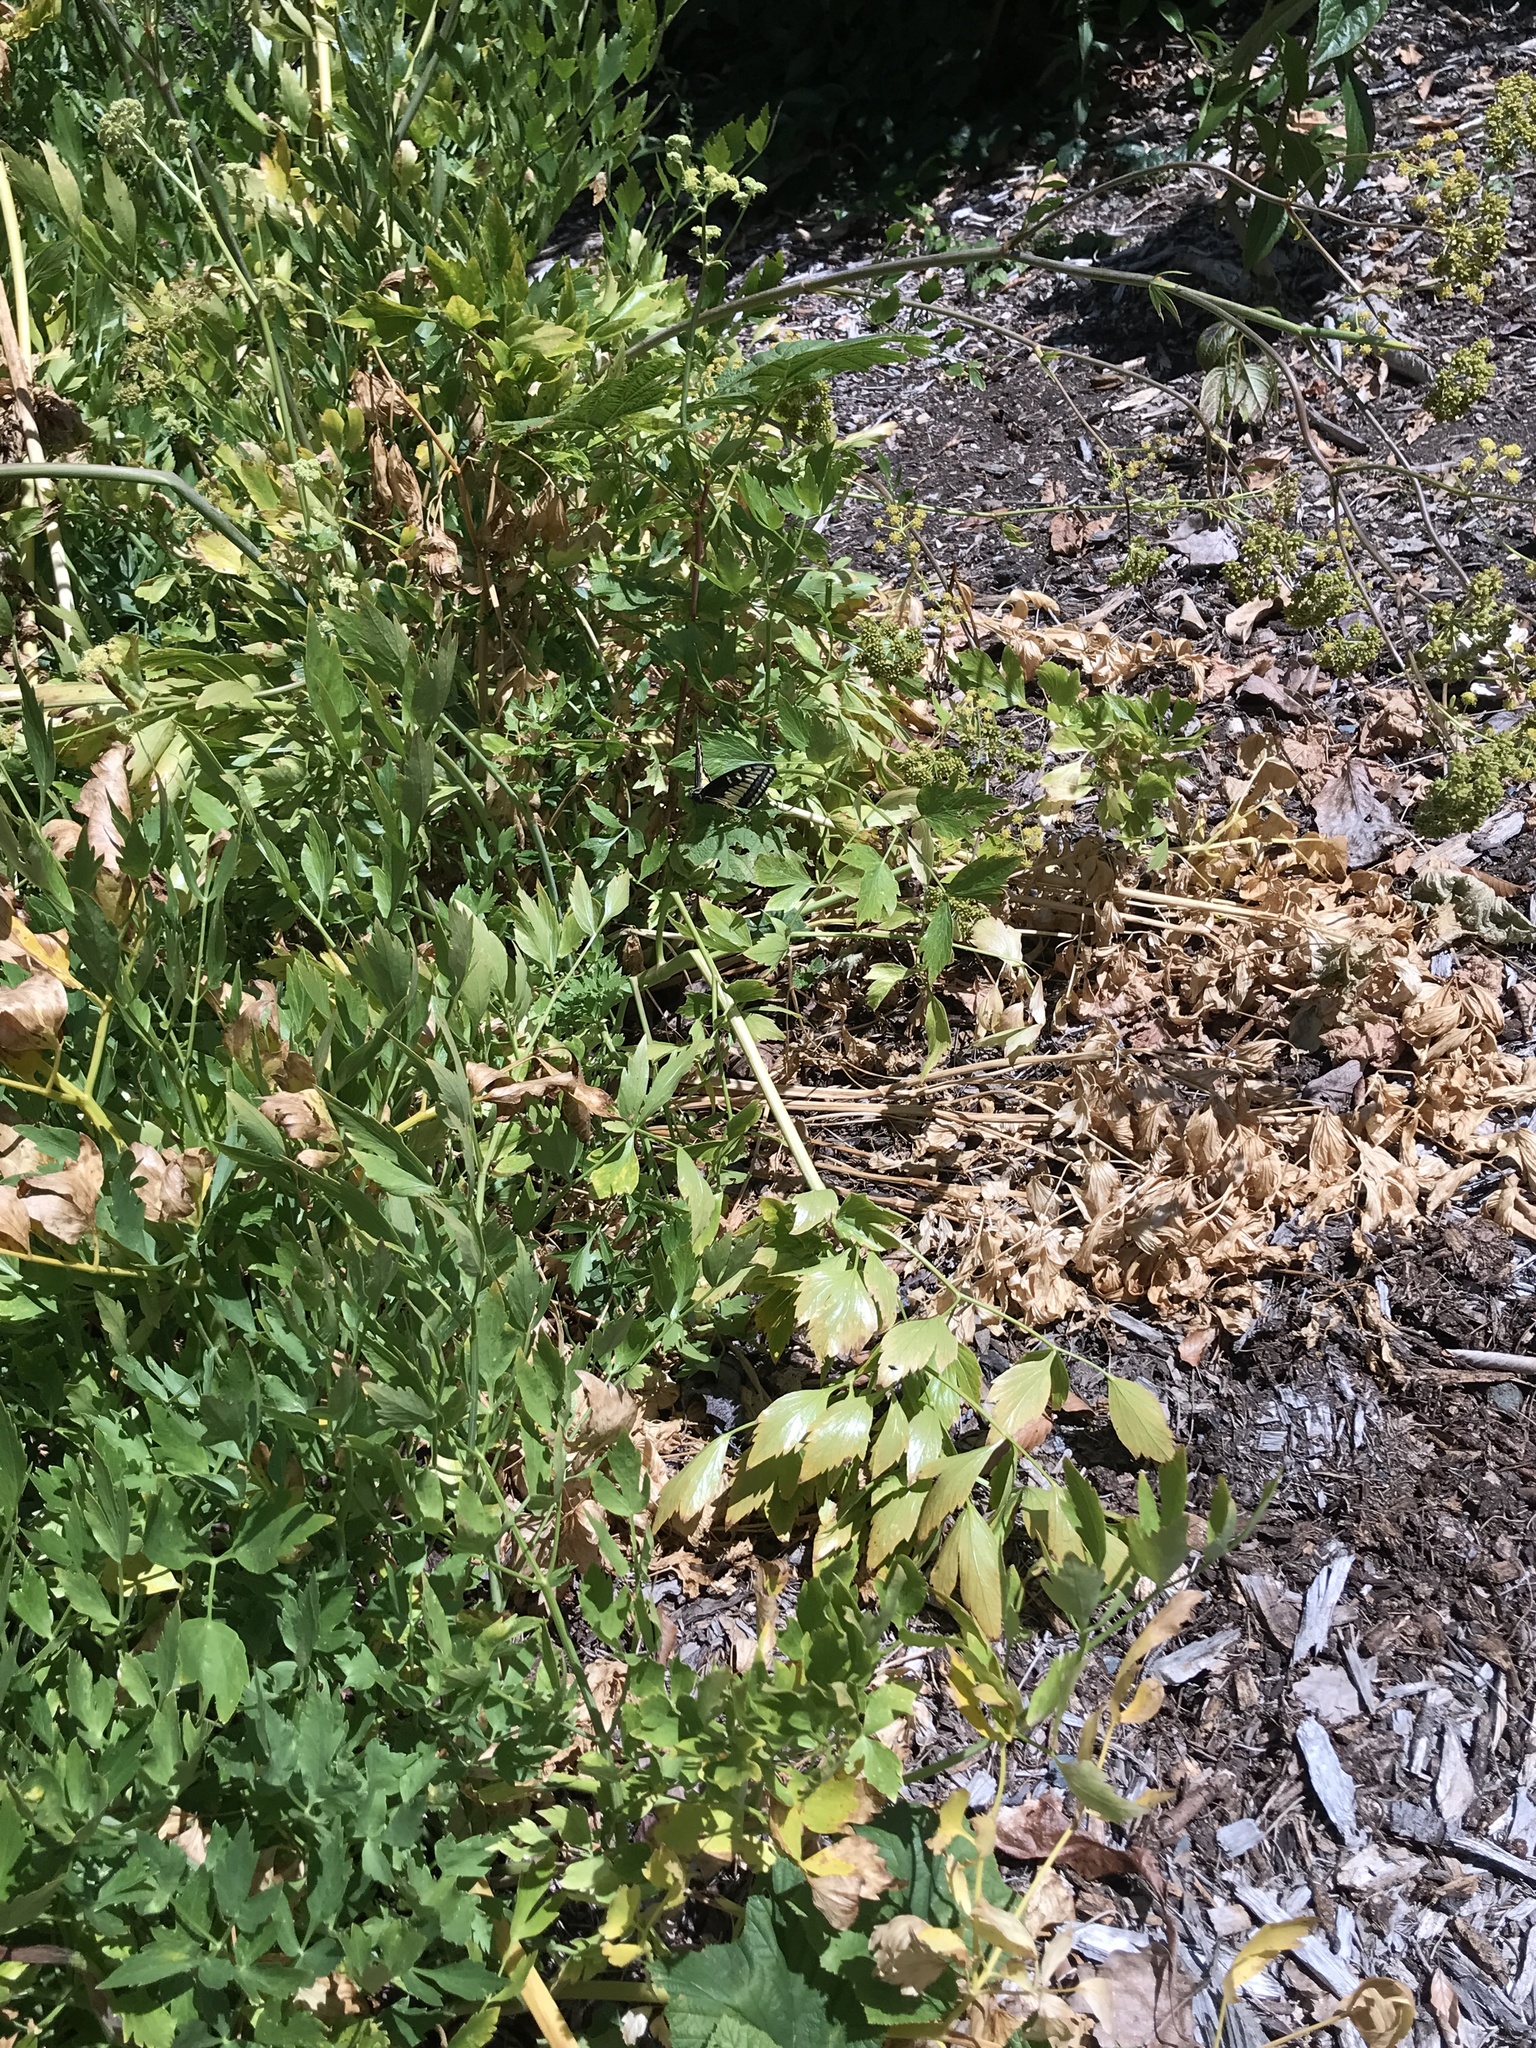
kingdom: Animalia
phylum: Arthropoda
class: Insecta
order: Lepidoptera
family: Papilionidae
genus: Papilio
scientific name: Papilio zelicaon
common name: Anise swallowtail
